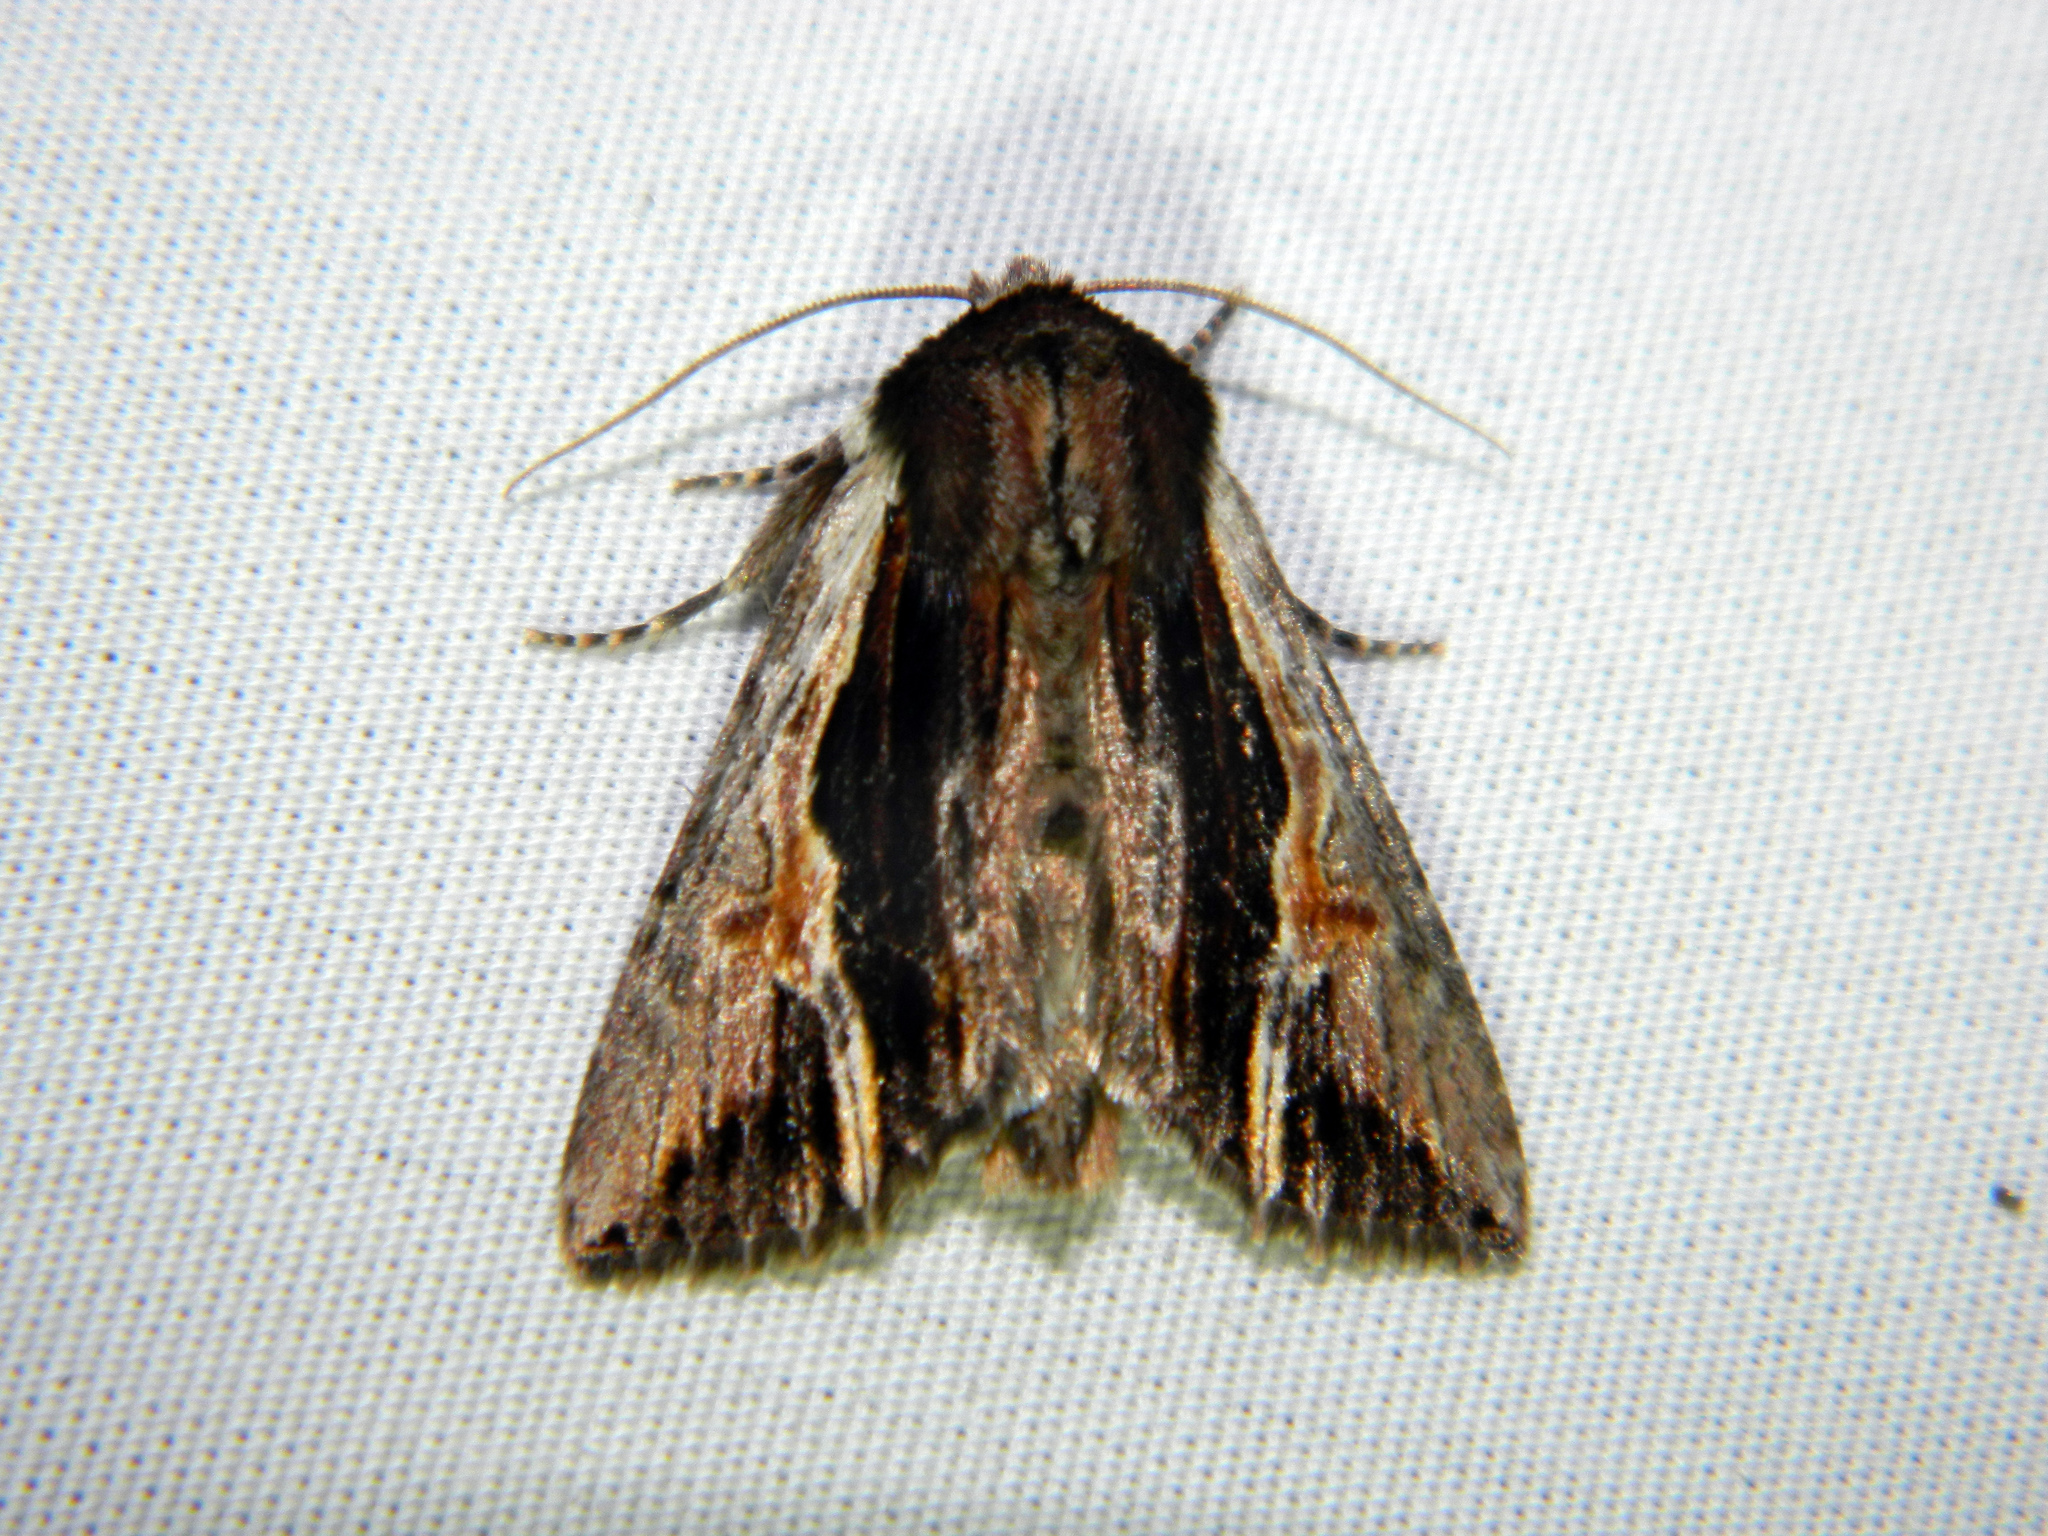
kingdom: Animalia
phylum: Arthropoda
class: Insecta
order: Lepidoptera
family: Noctuidae
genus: Achatia
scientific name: Achatia evicta
